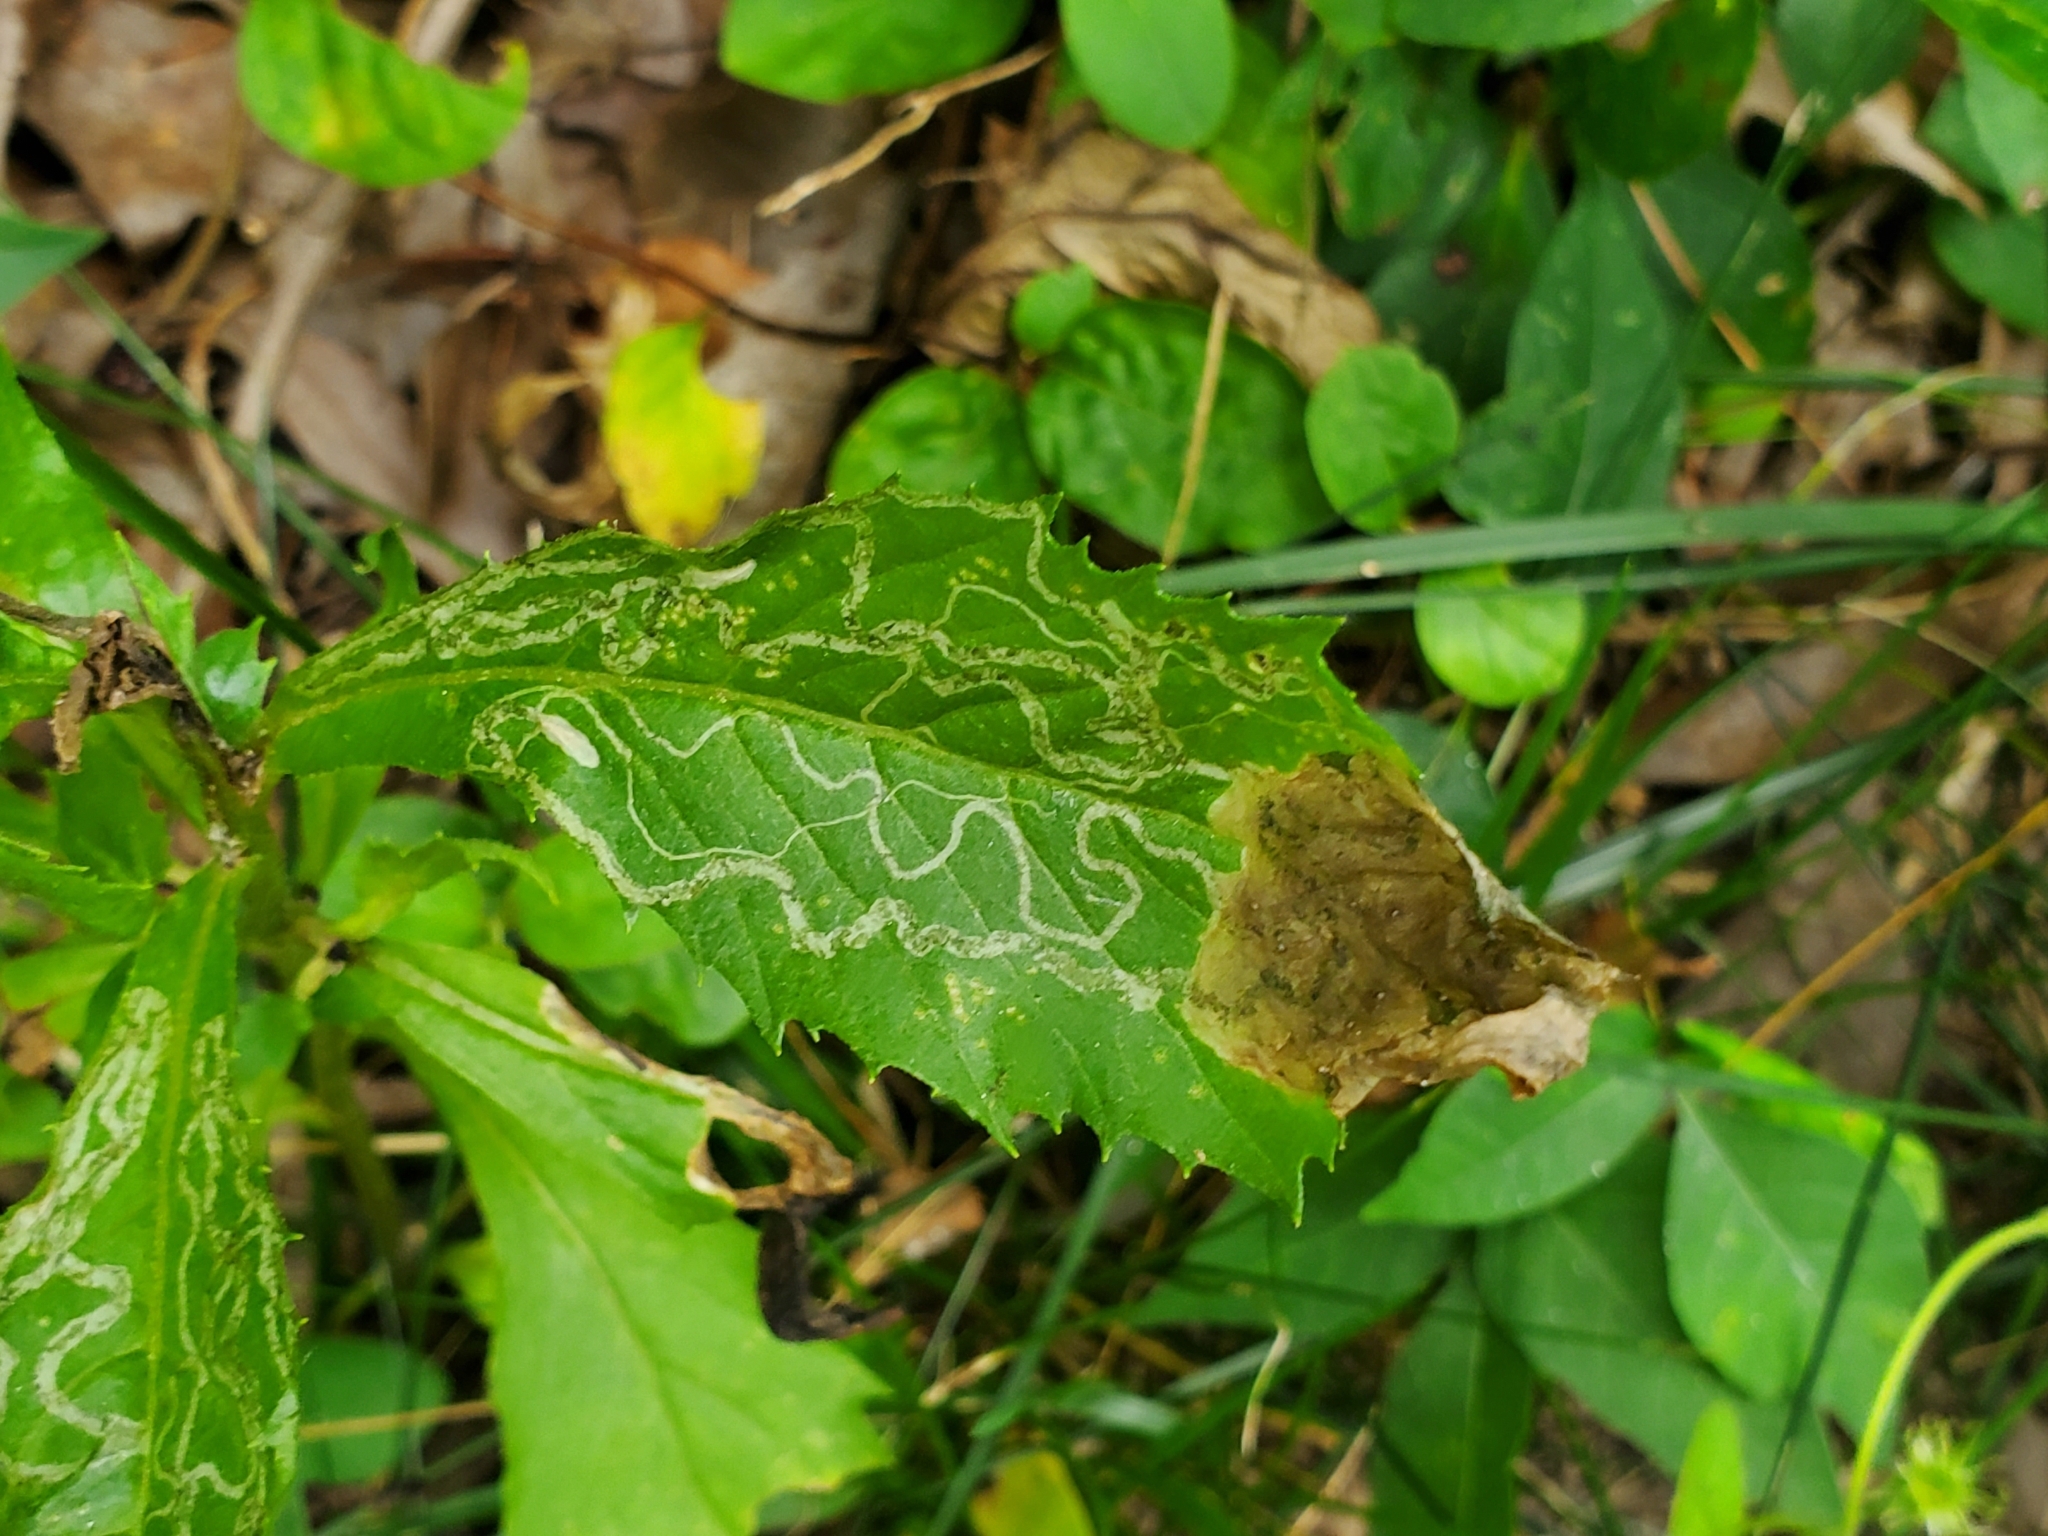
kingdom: Animalia
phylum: Arthropoda
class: Insecta
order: Lepidoptera
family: Gracillariidae
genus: Phyllocnistis
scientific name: Phyllocnistis insignis
